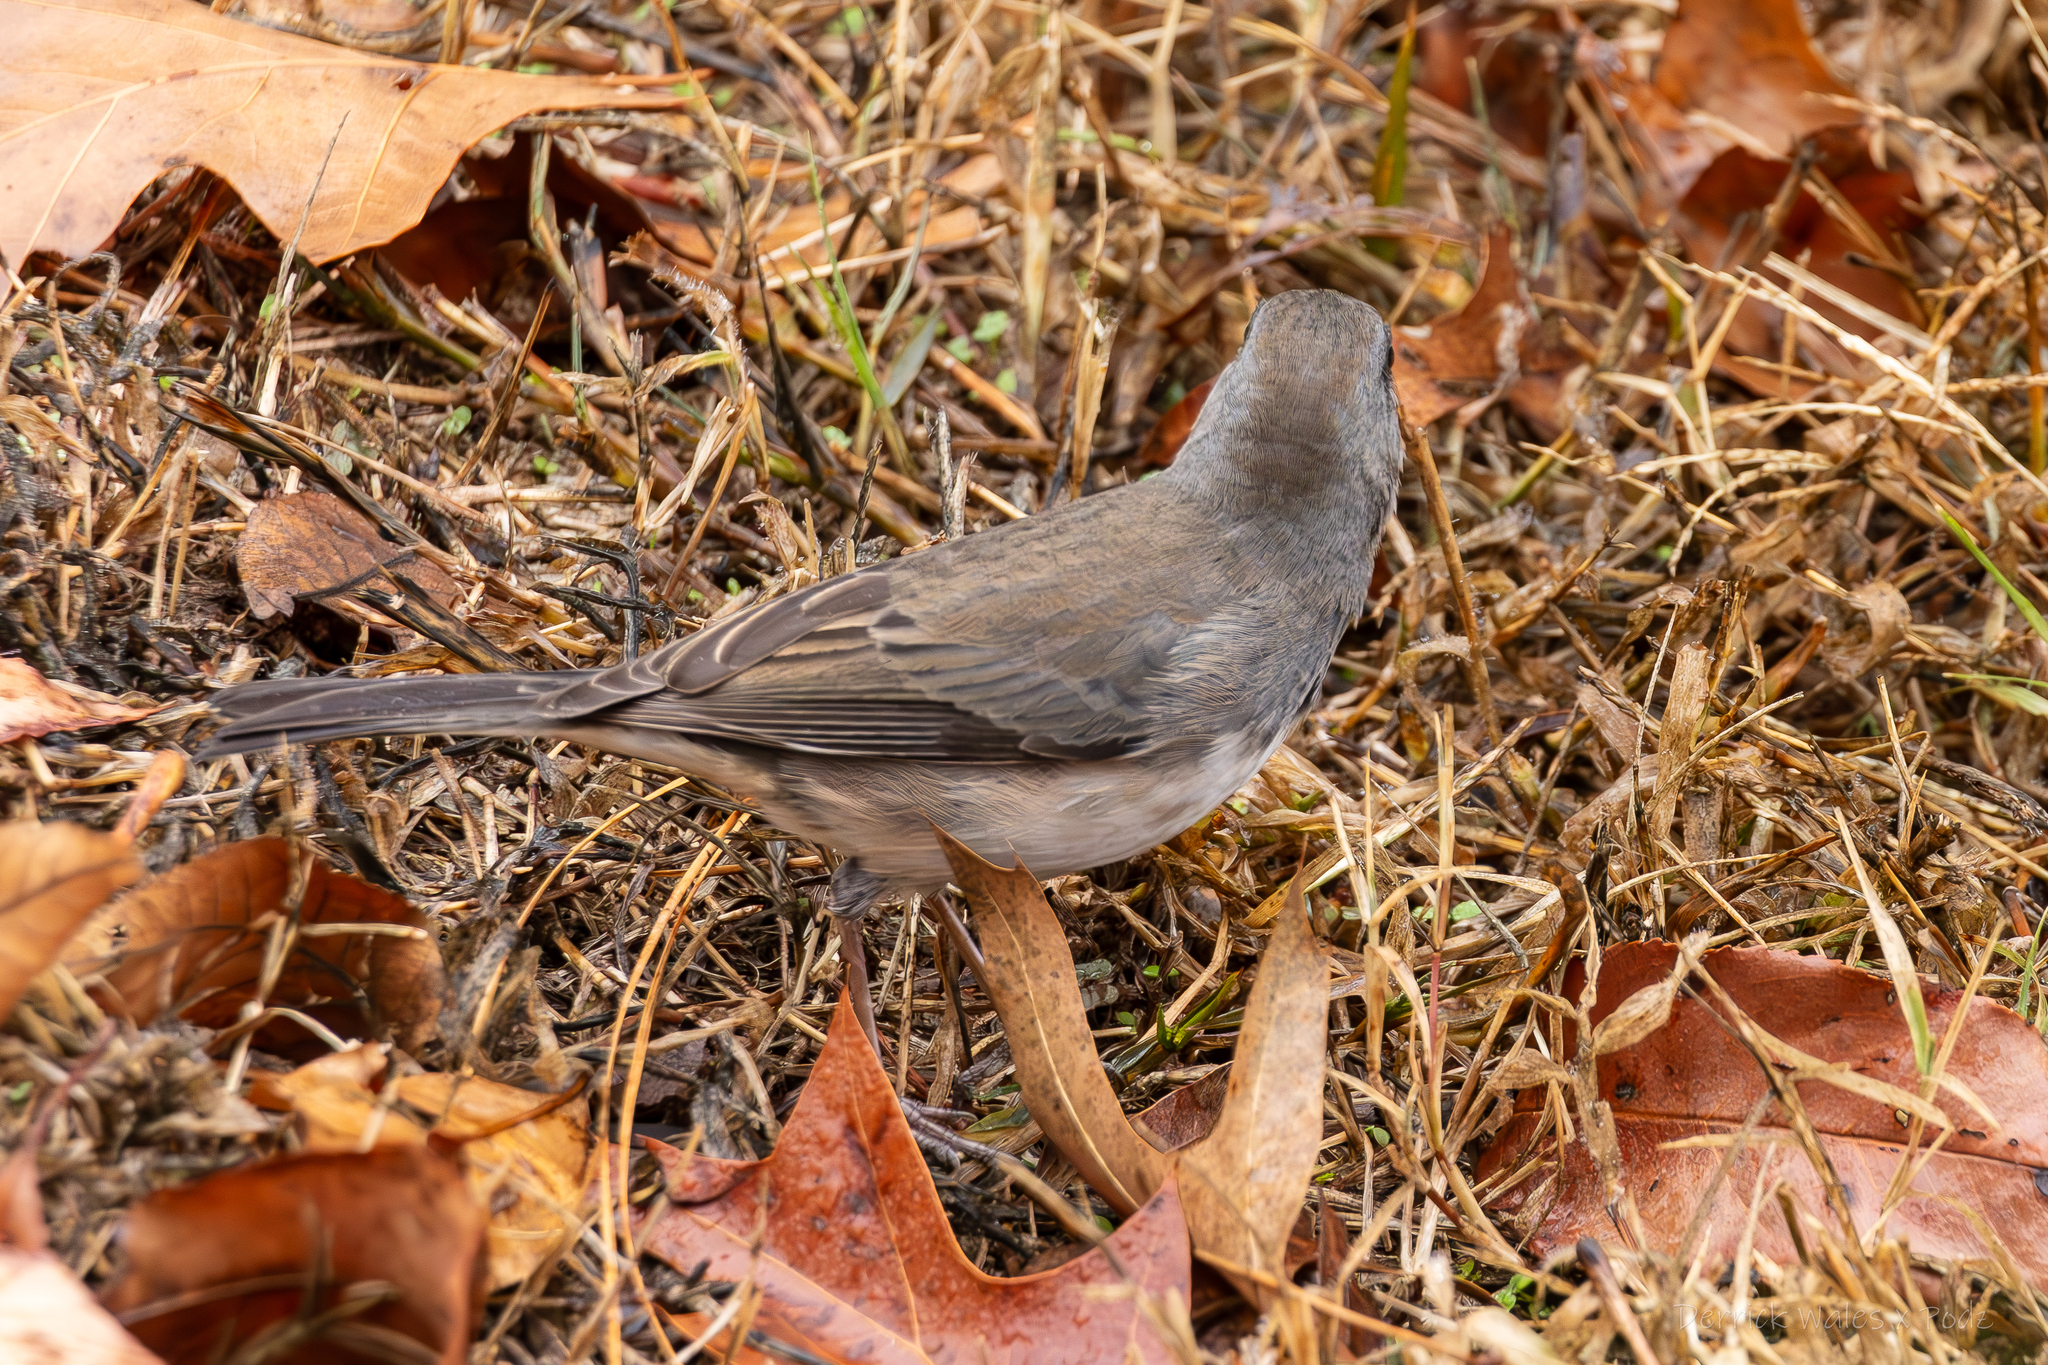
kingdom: Animalia
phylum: Chordata
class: Aves
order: Passeriformes
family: Passerellidae
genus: Junco
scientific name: Junco hyemalis
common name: Dark-eyed junco
